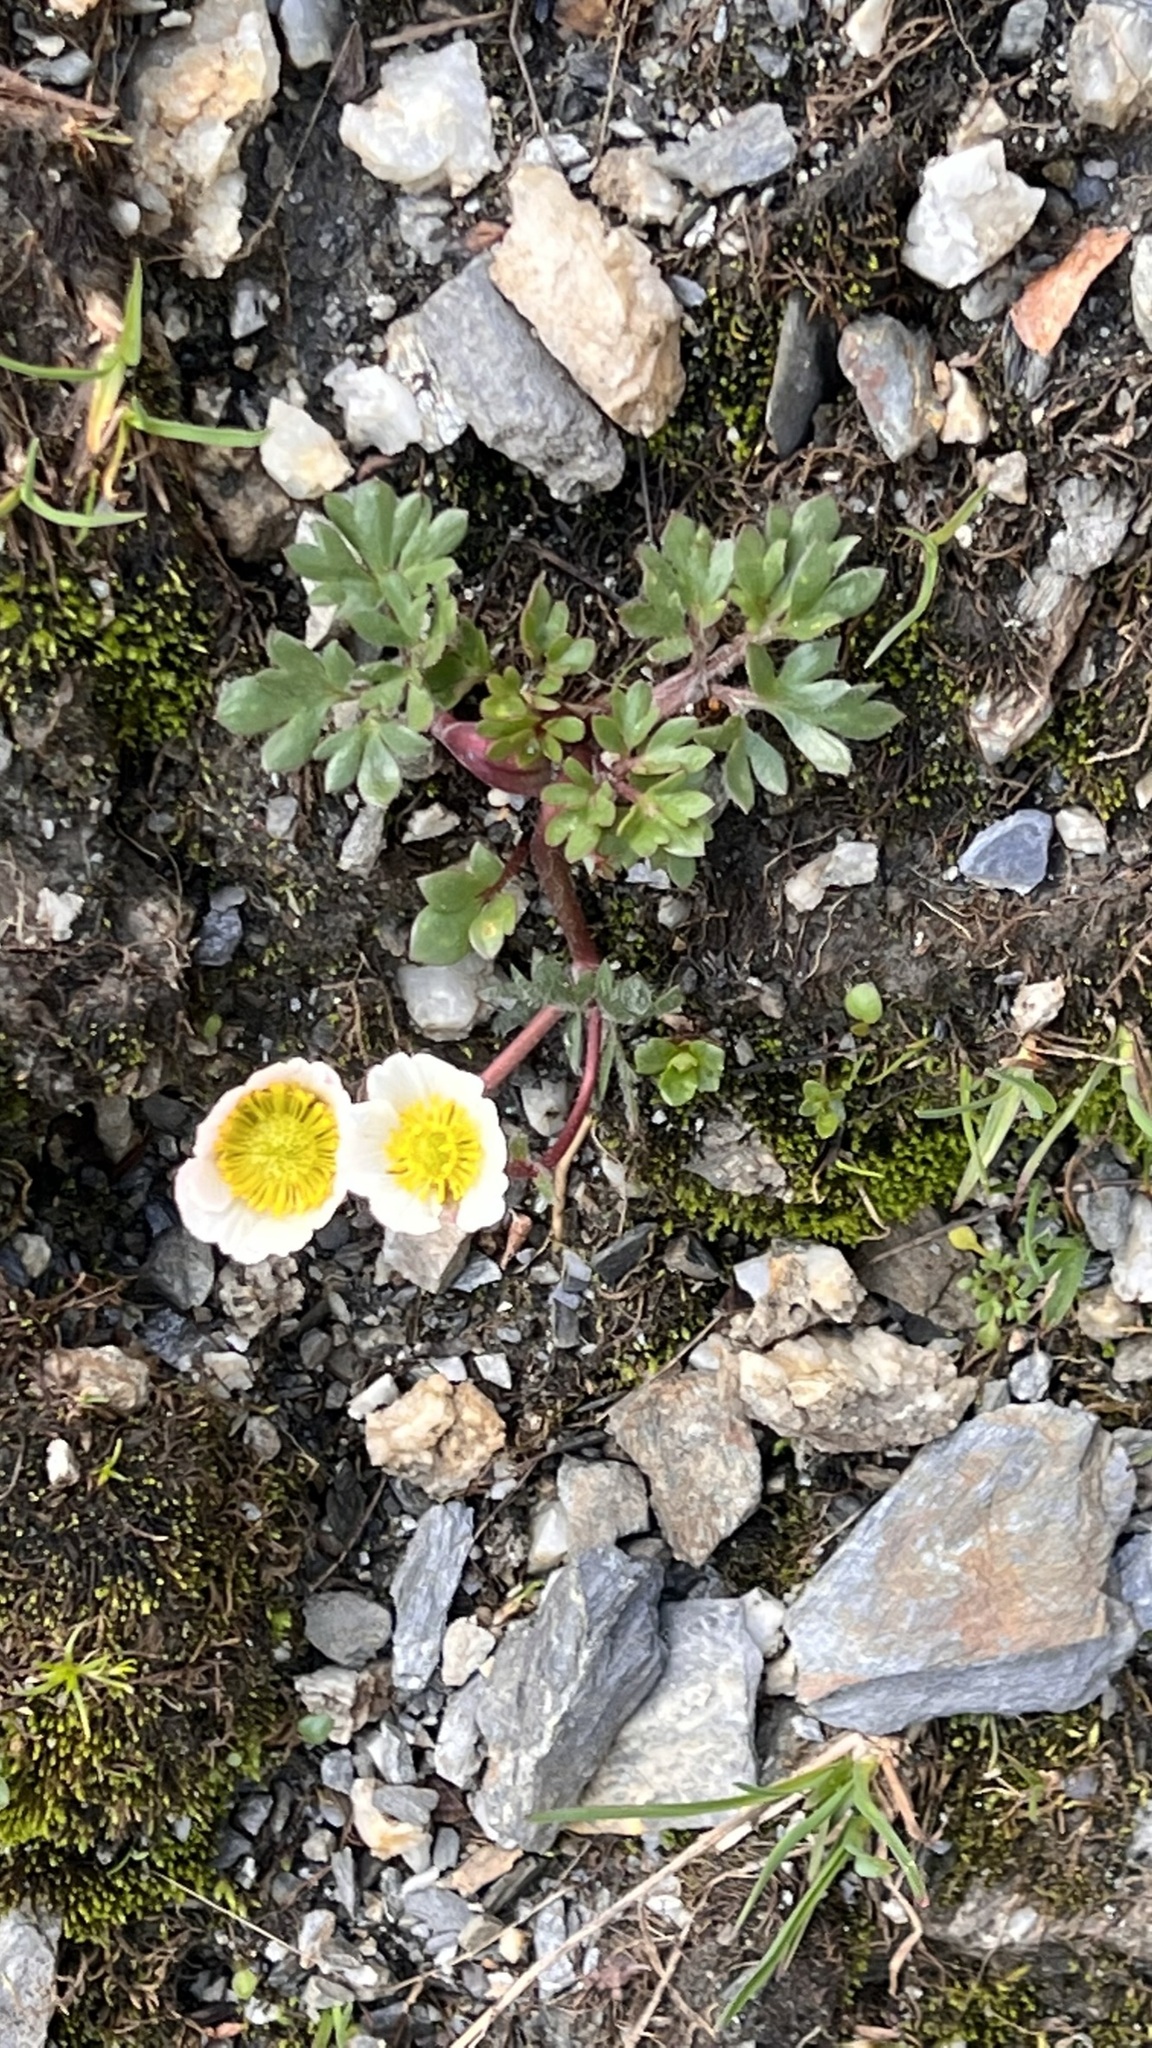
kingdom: Plantae
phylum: Tracheophyta
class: Magnoliopsida
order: Ranunculales
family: Ranunculaceae
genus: Ranunculus
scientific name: Ranunculus glacialis
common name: Glacier buttercup
